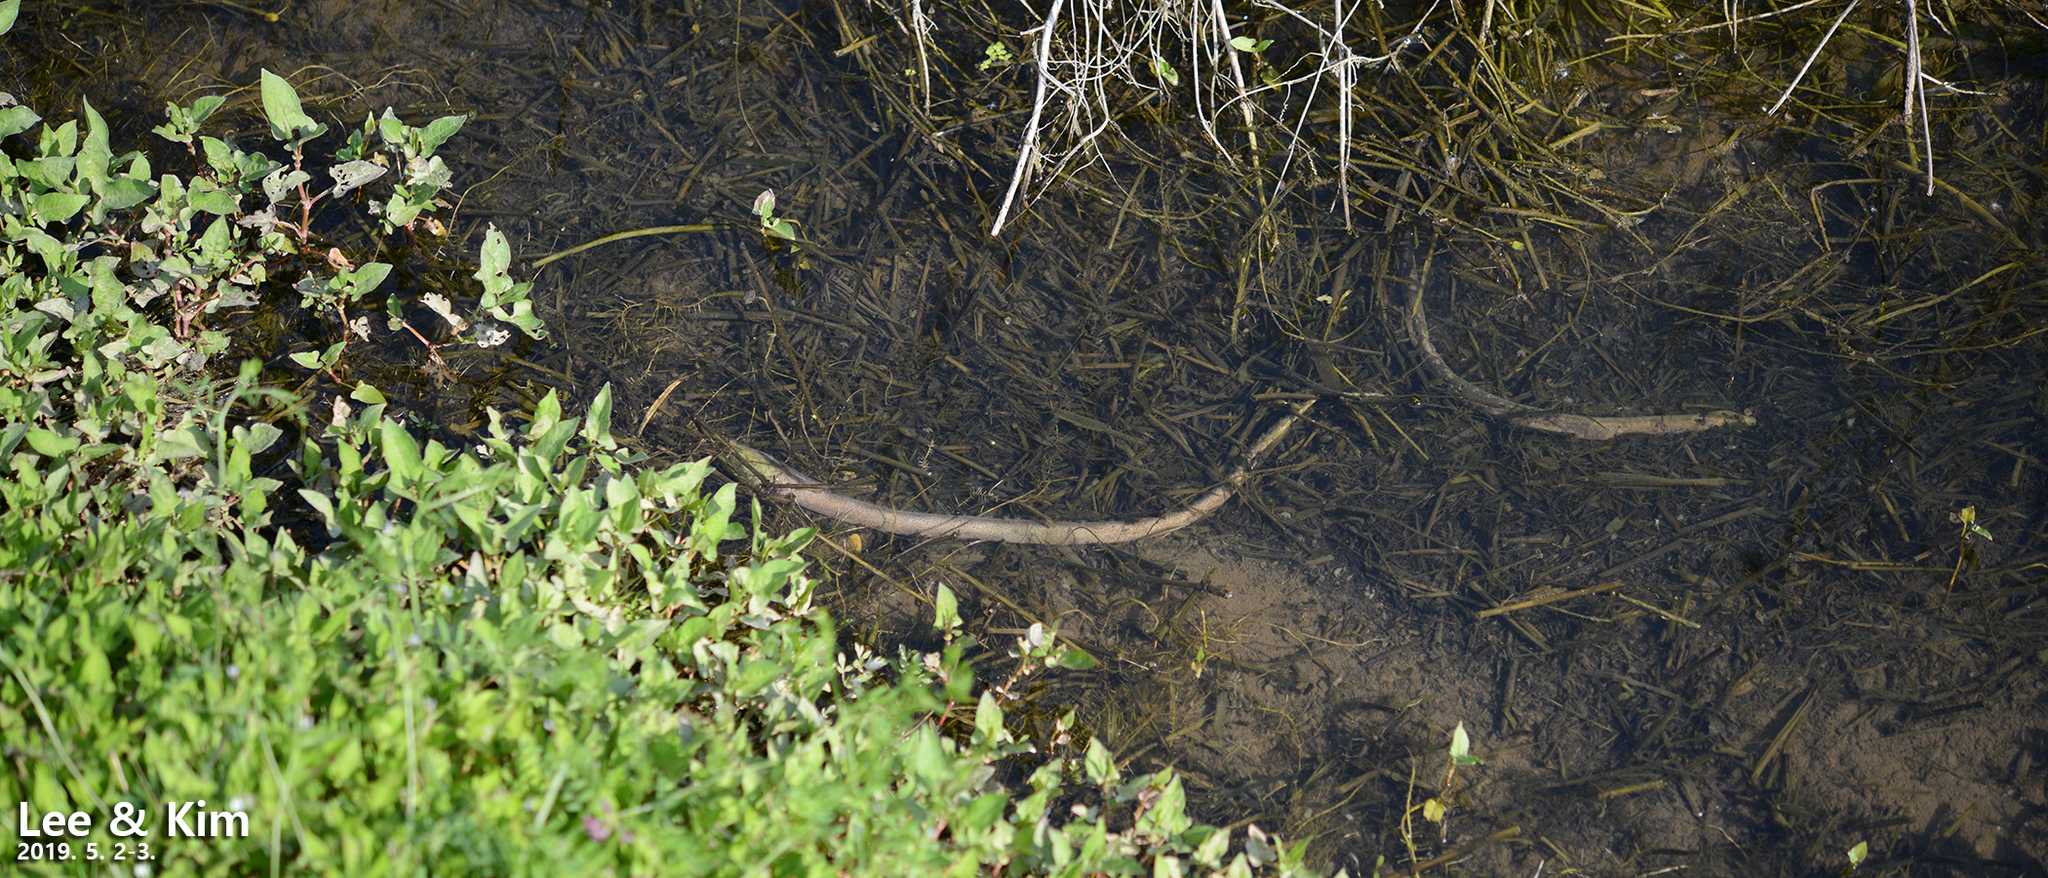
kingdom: Animalia
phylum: Chordata
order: Synbranchiformes
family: Synbranchidae
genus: Monopterus
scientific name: Monopterus albus
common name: Asian swamp eel
